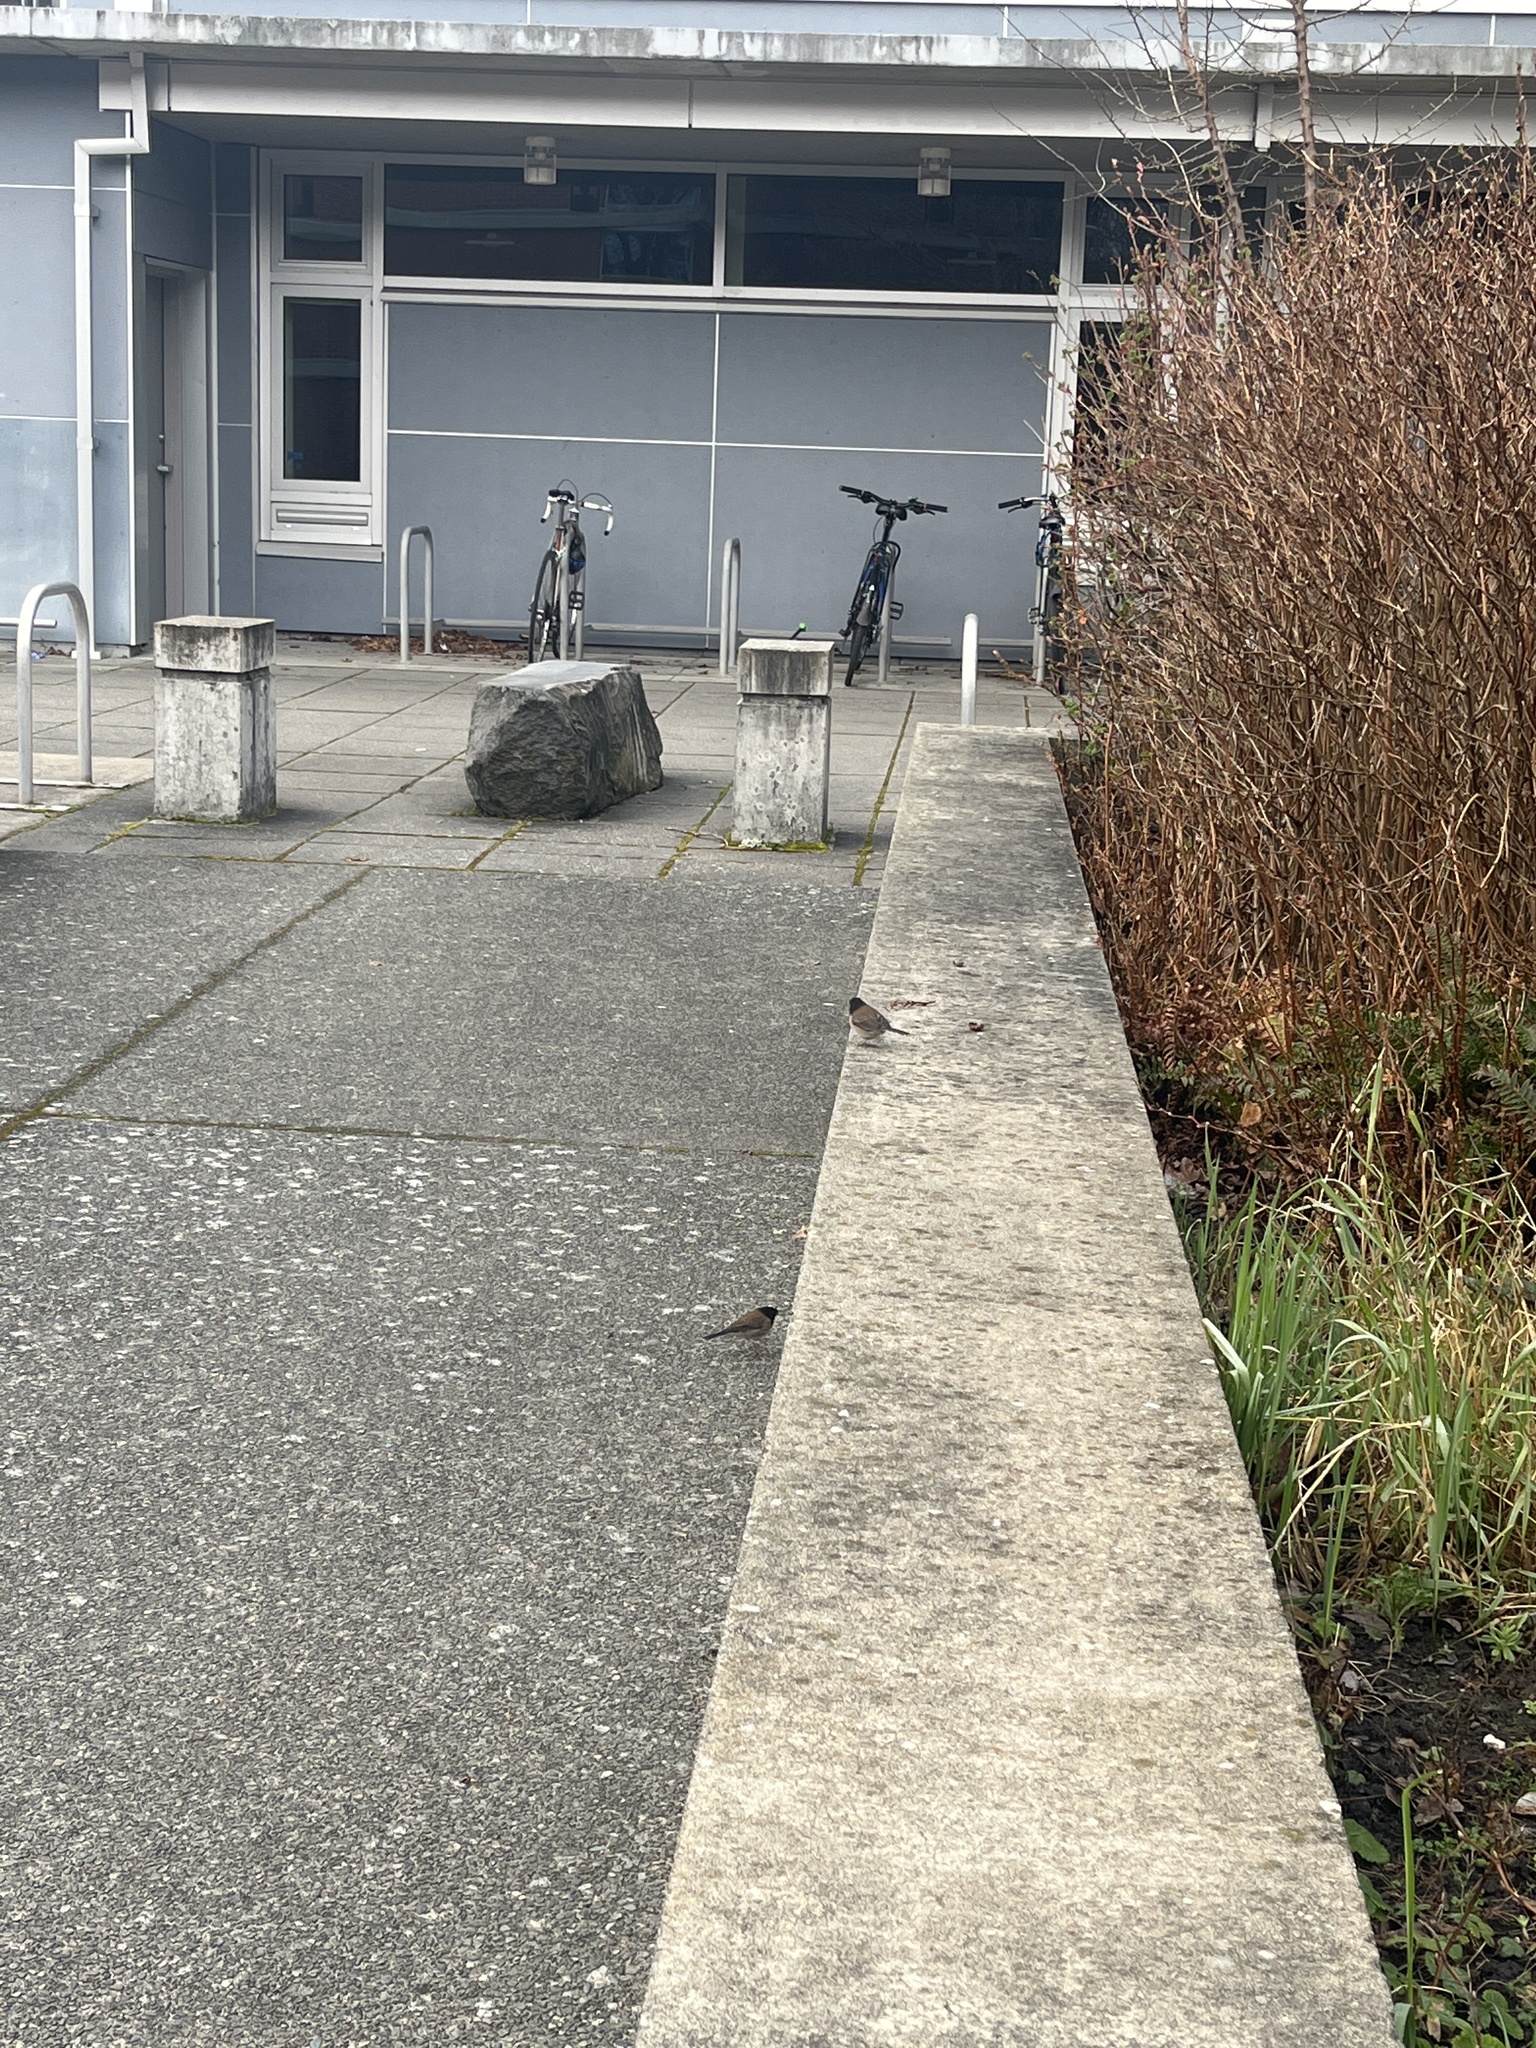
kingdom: Animalia
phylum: Chordata
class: Aves
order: Passeriformes
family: Passerellidae
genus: Junco
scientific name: Junco hyemalis
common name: Dark-eyed junco
